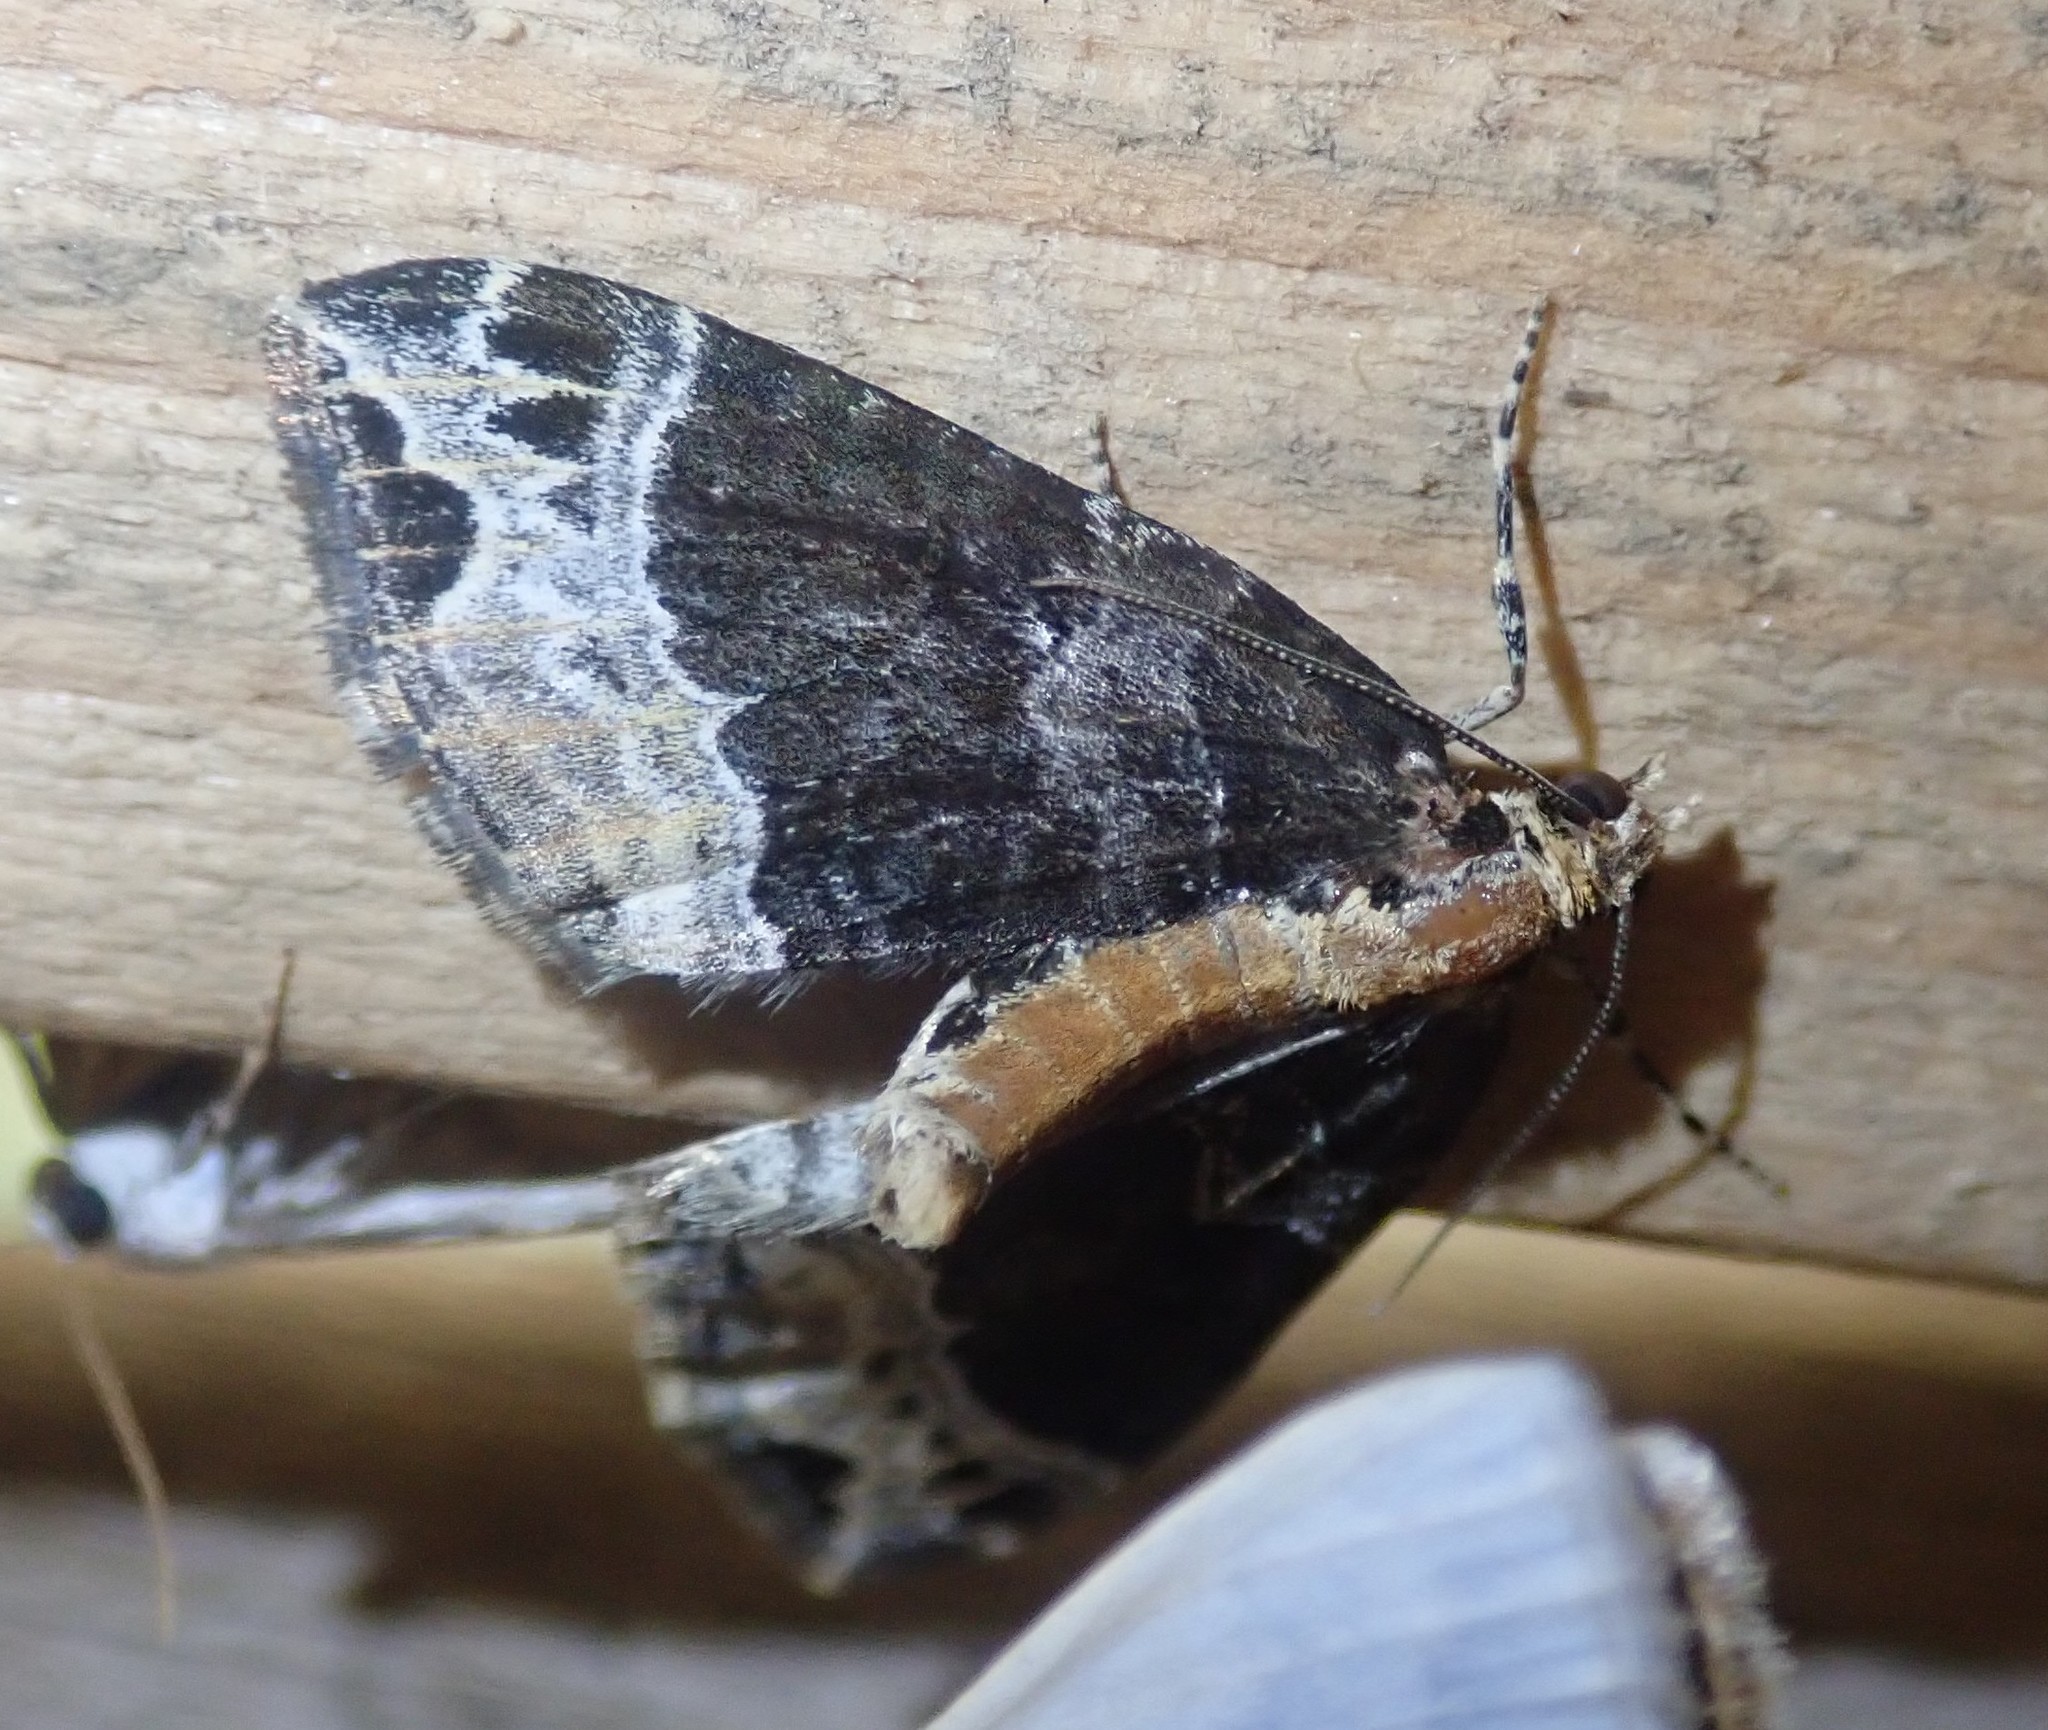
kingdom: Animalia
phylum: Arthropoda
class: Insecta
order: Lepidoptera
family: Geometridae
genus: Ecliptopera
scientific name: Ecliptopera capitata
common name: Yellow-headed phoenix
